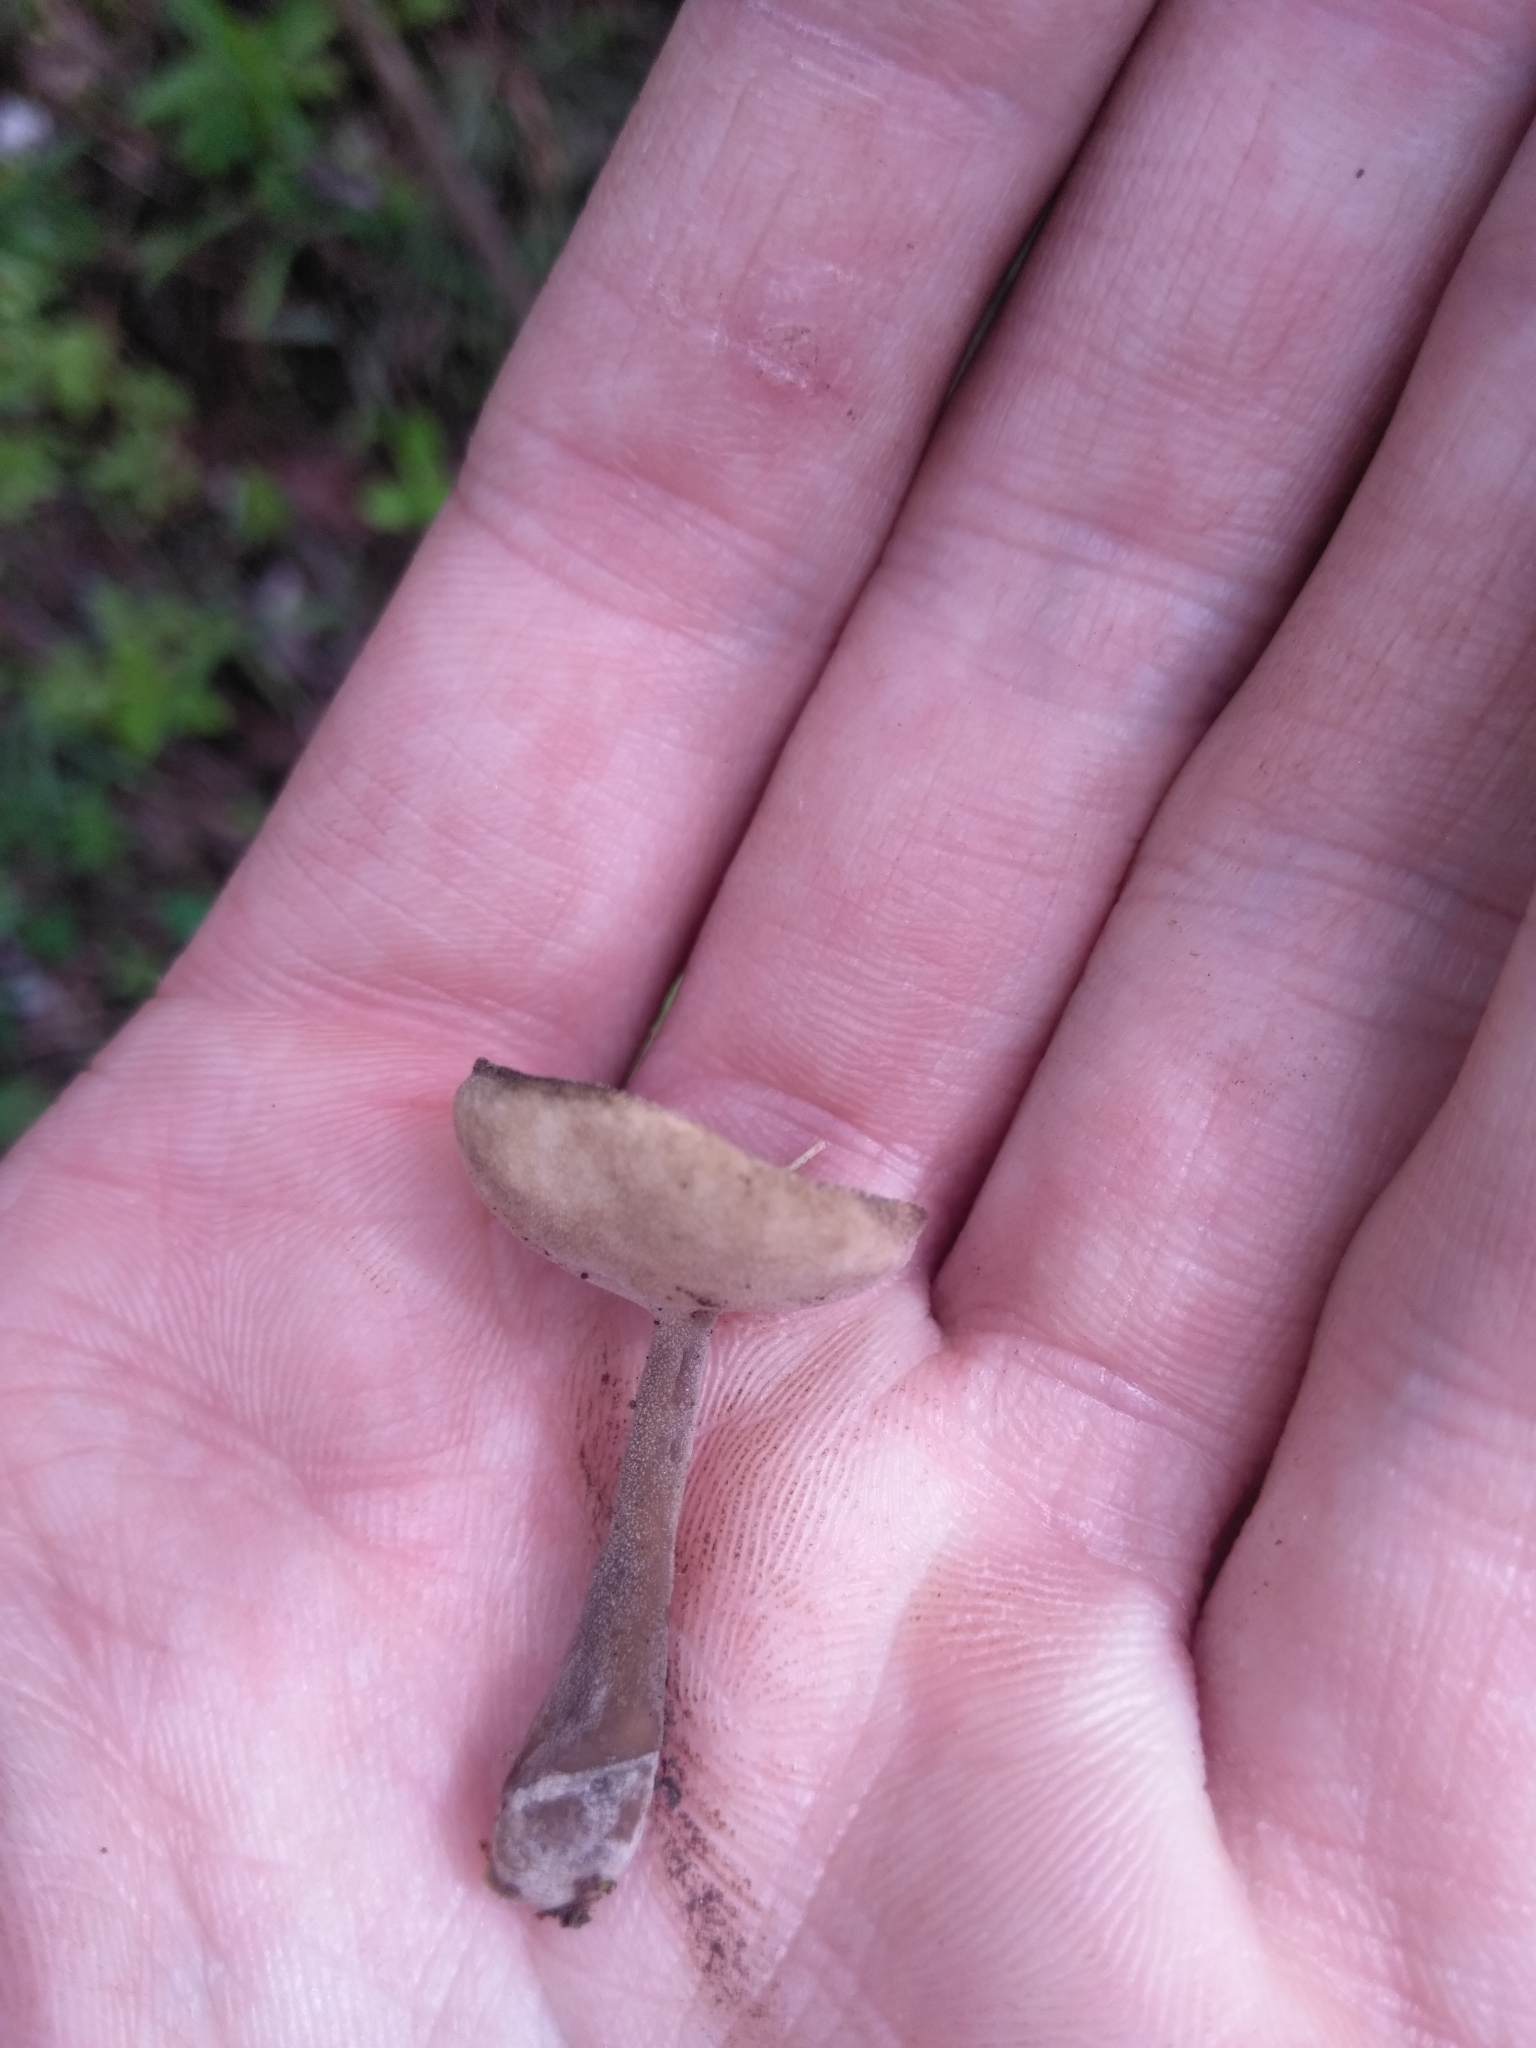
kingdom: Fungi
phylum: Ascomycota
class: Pezizomycetes
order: Pezizales
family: Helvellaceae
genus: Helvella
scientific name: Helvella macropus
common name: Felt saddle
